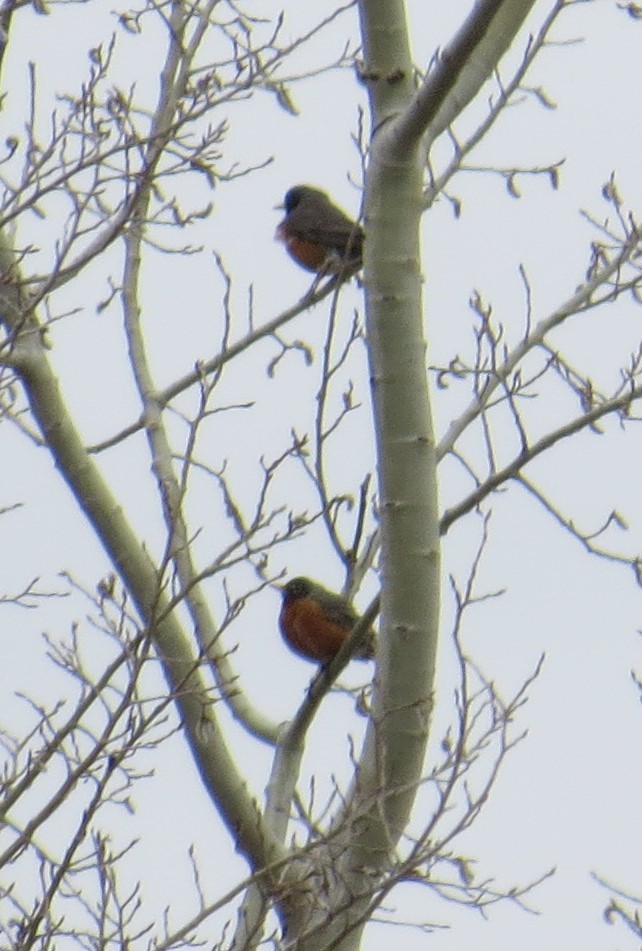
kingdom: Animalia
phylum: Chordata
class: Aves
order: Passeriformes
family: Turdidae
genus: Turdus
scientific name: Turdus migratorius
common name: American robin
